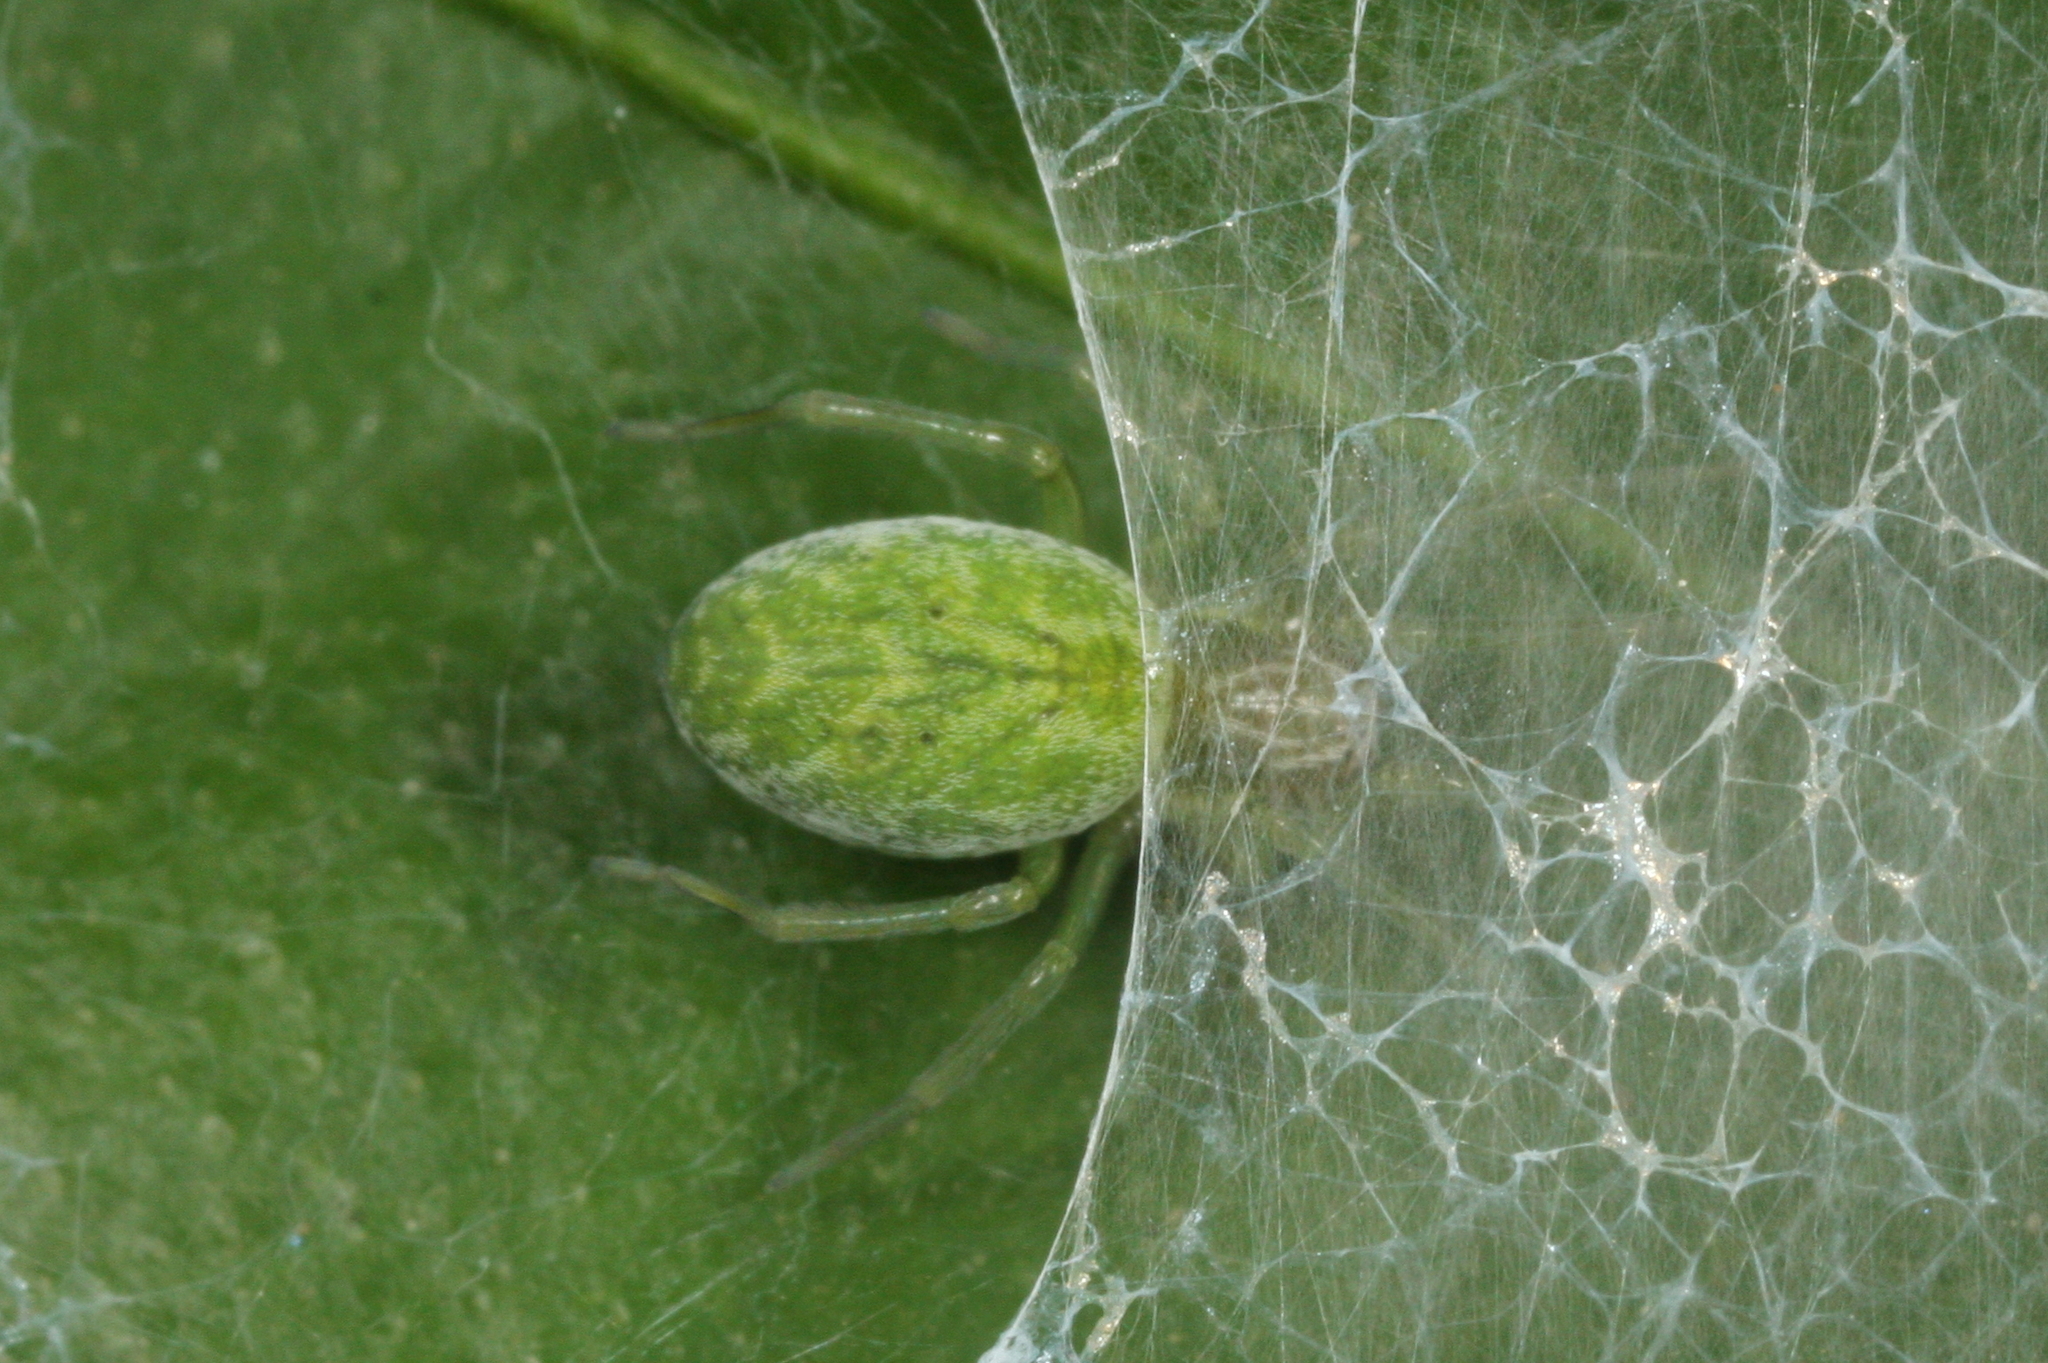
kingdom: Animalia
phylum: Arthropoda
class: Arachnida
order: Araneae
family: Dictynidae
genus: Nigma
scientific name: Nigma walckenaeri
